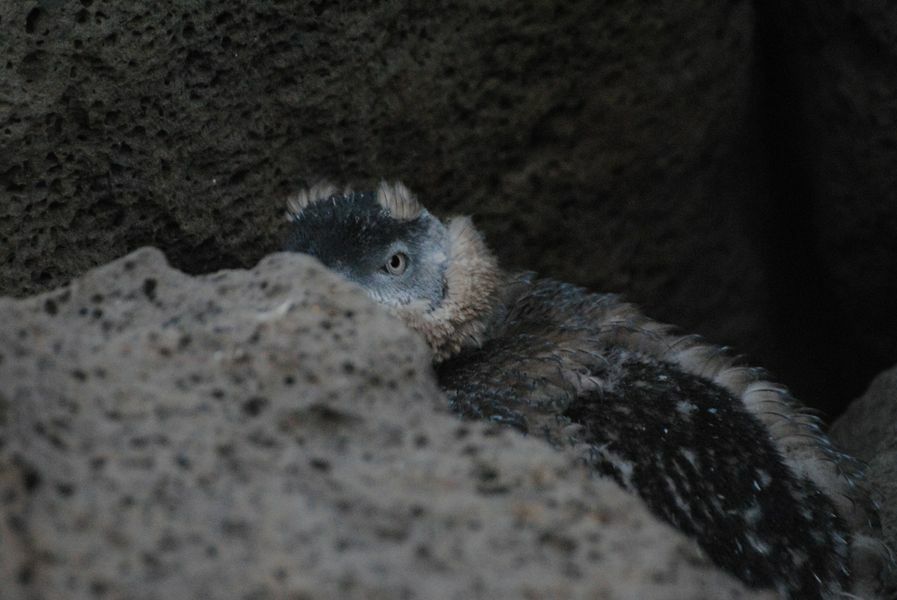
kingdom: Animalia
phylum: Chordata
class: Aves
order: Sphenisciformes
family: Spheniscidae
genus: Eudyptula
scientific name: Eudyptula minor
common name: Little penguin
